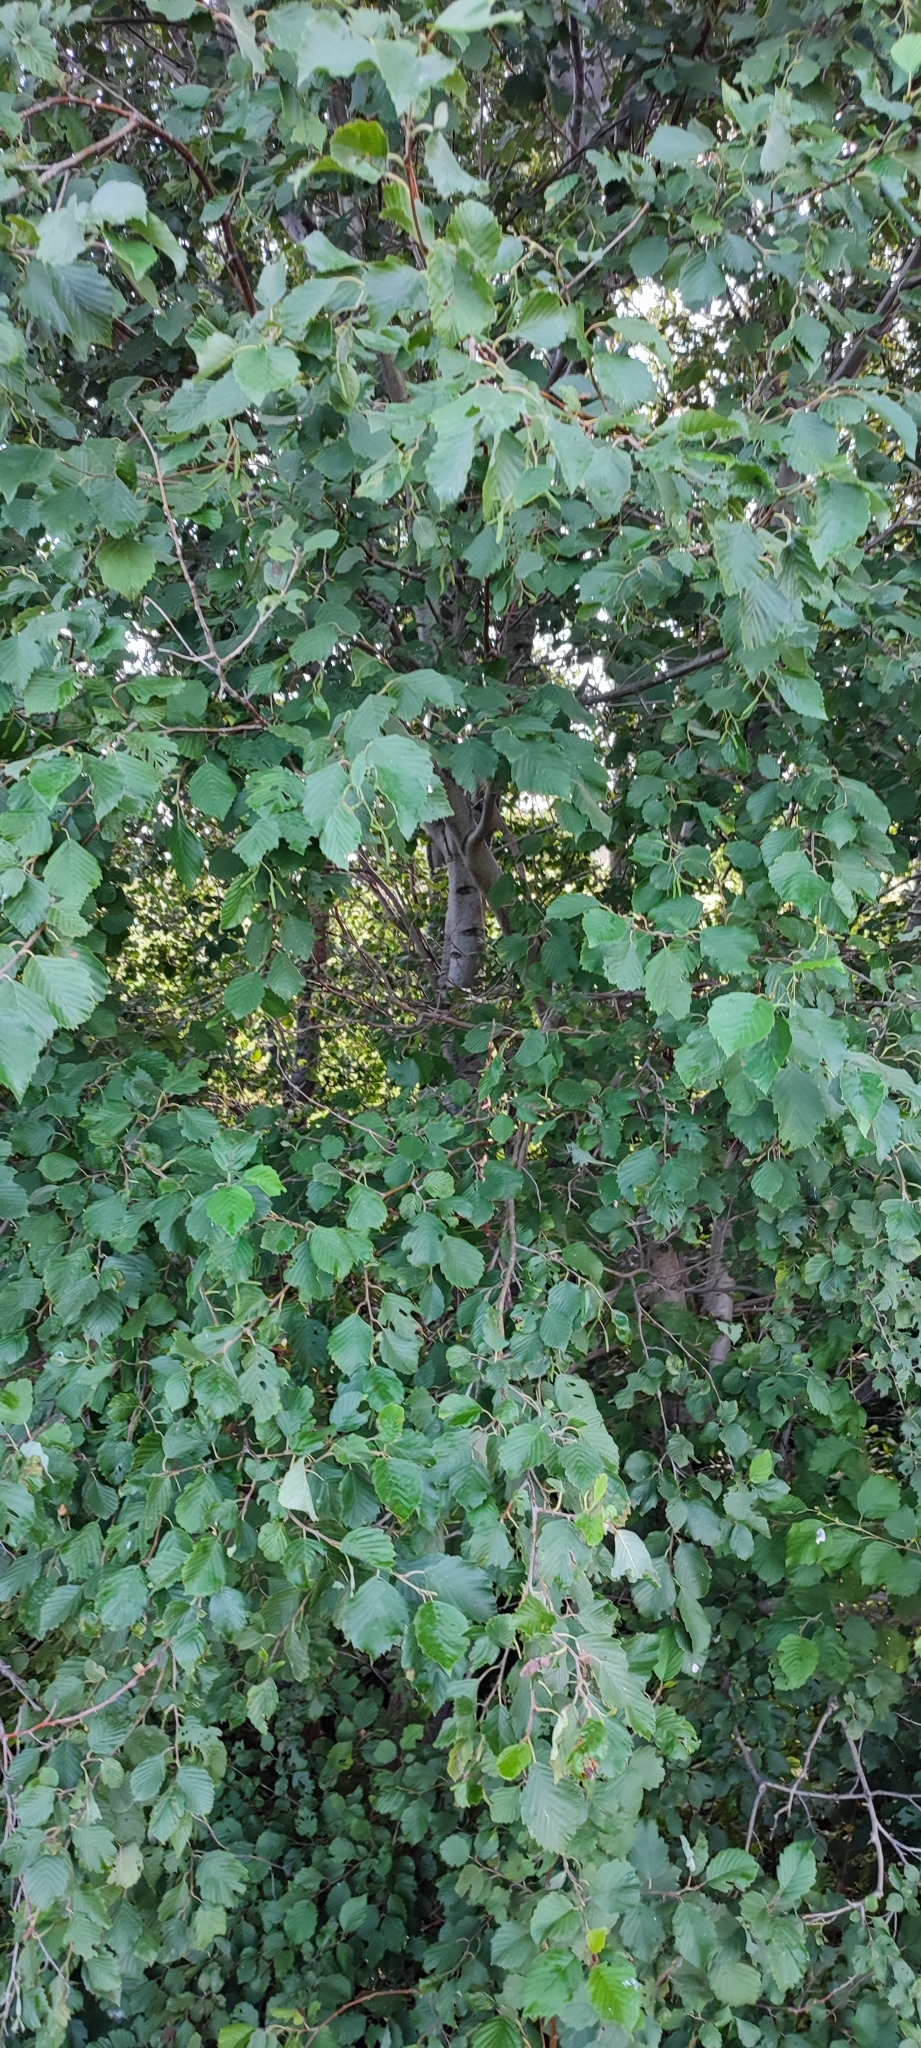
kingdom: Plantae
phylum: Tracheophyta
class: Magnoliopsida
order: Fagales
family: Betulaceae
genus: Alnus
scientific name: Alnus incana
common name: Grey alder
